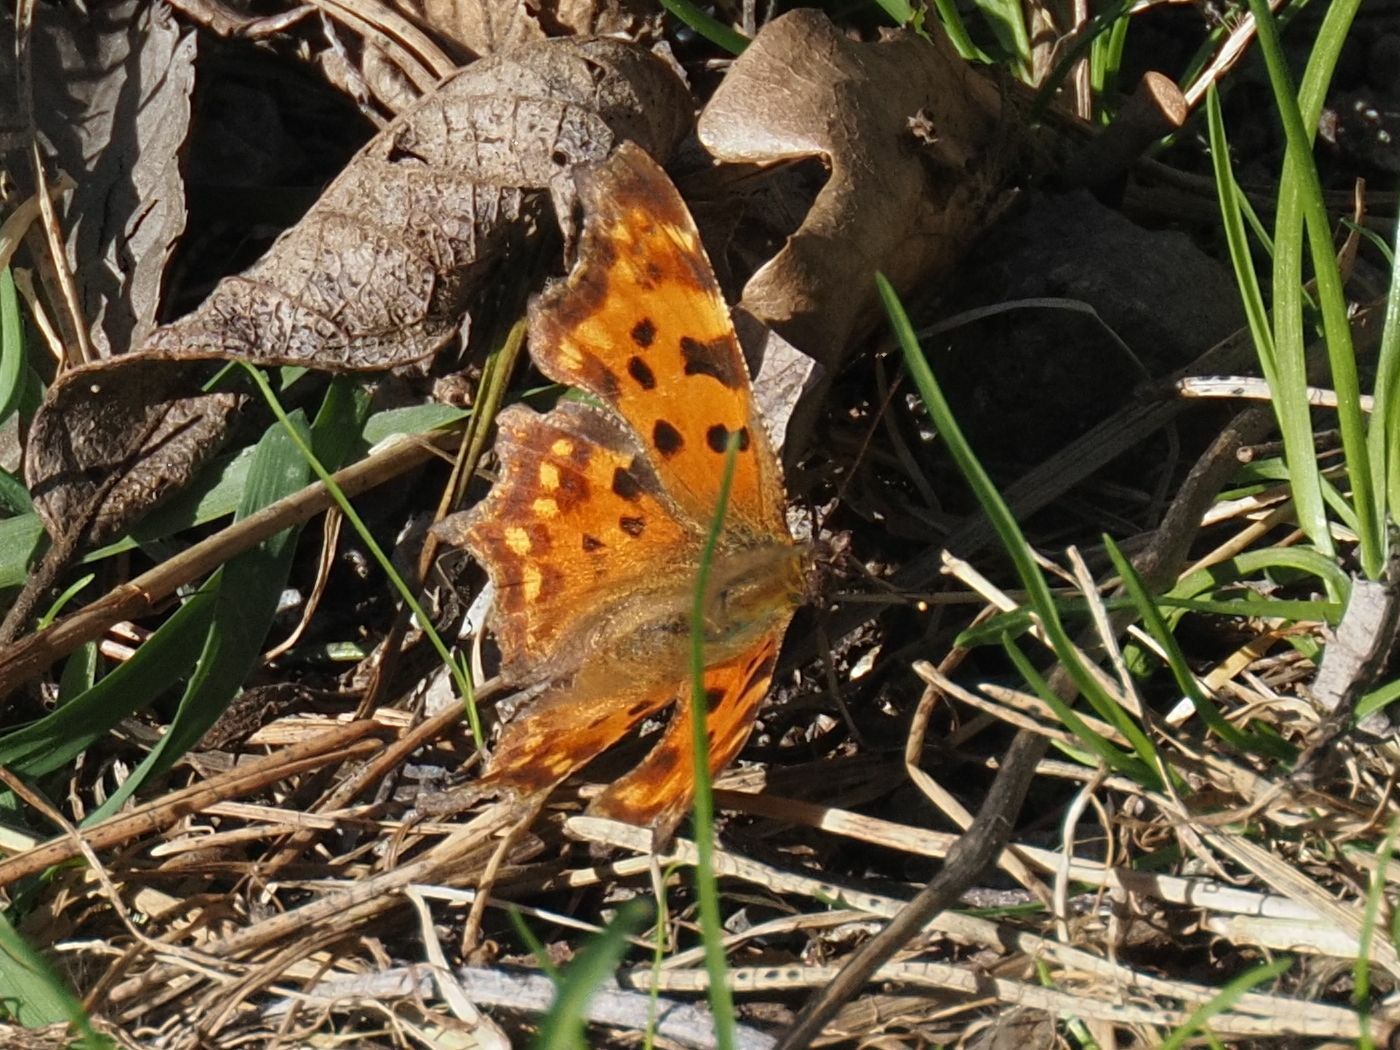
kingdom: Animalia
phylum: Arthropoda
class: Insecta
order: Lepidoptera
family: Nymphalidae
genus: Polygonia
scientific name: Polygonia c-album
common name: Comma
